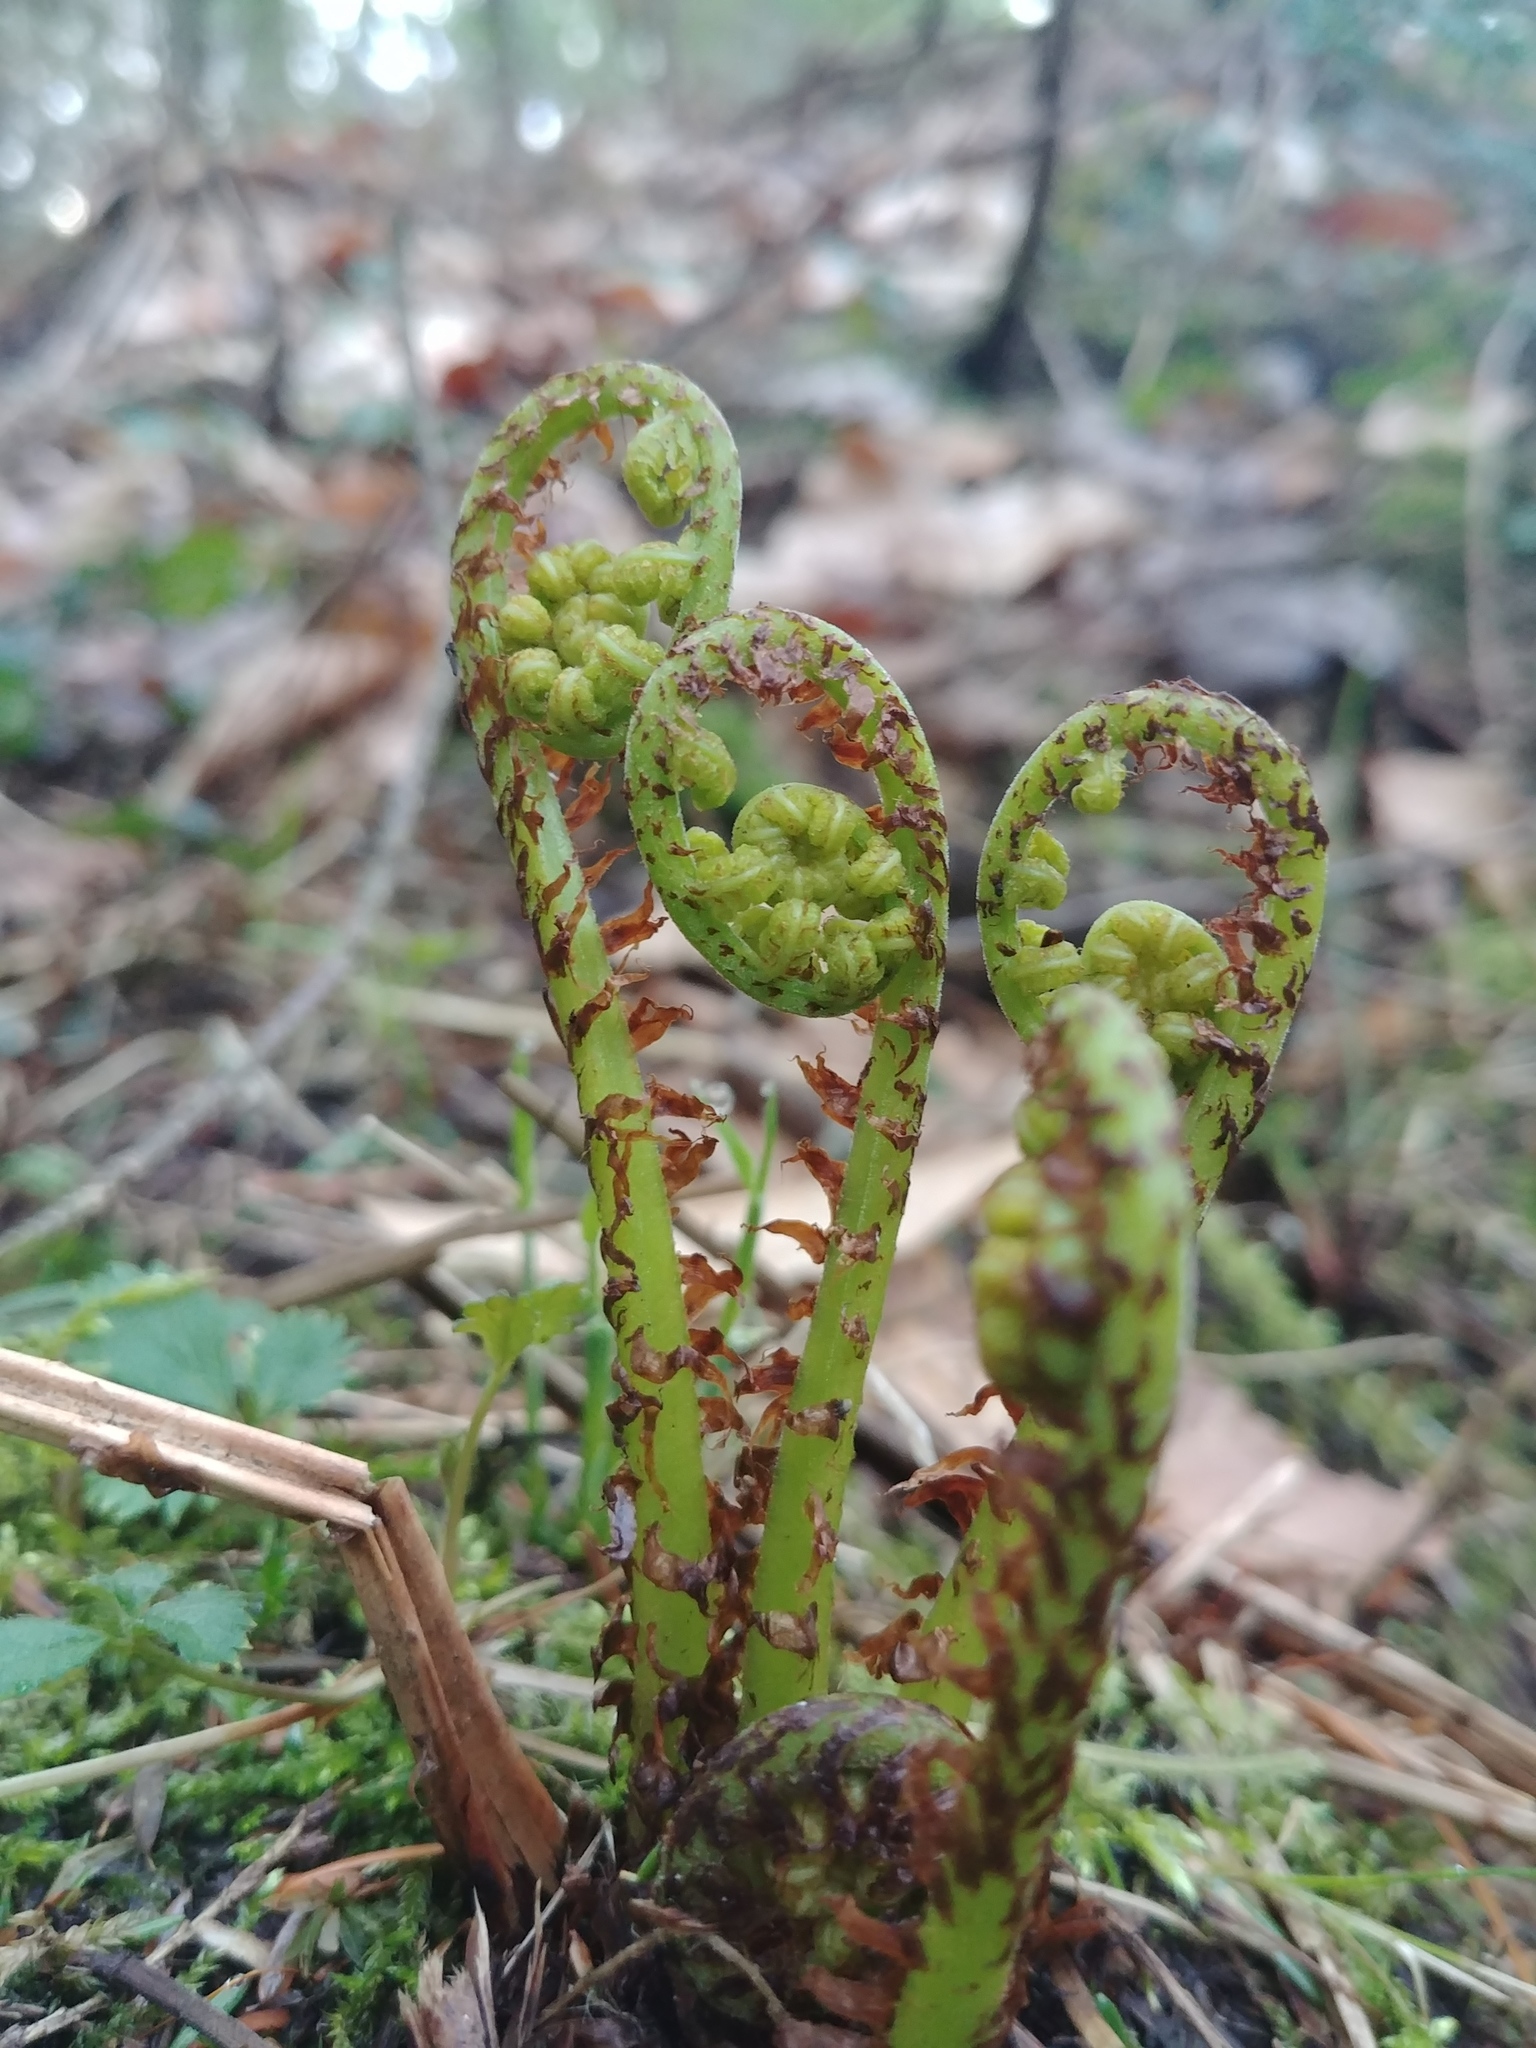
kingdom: Plantae
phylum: Tracheophyta
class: Polypodiopsida
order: Polypodiales
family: Athyriaceae
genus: Athyrium
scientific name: Athyrium angustum
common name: Northern lady fern
